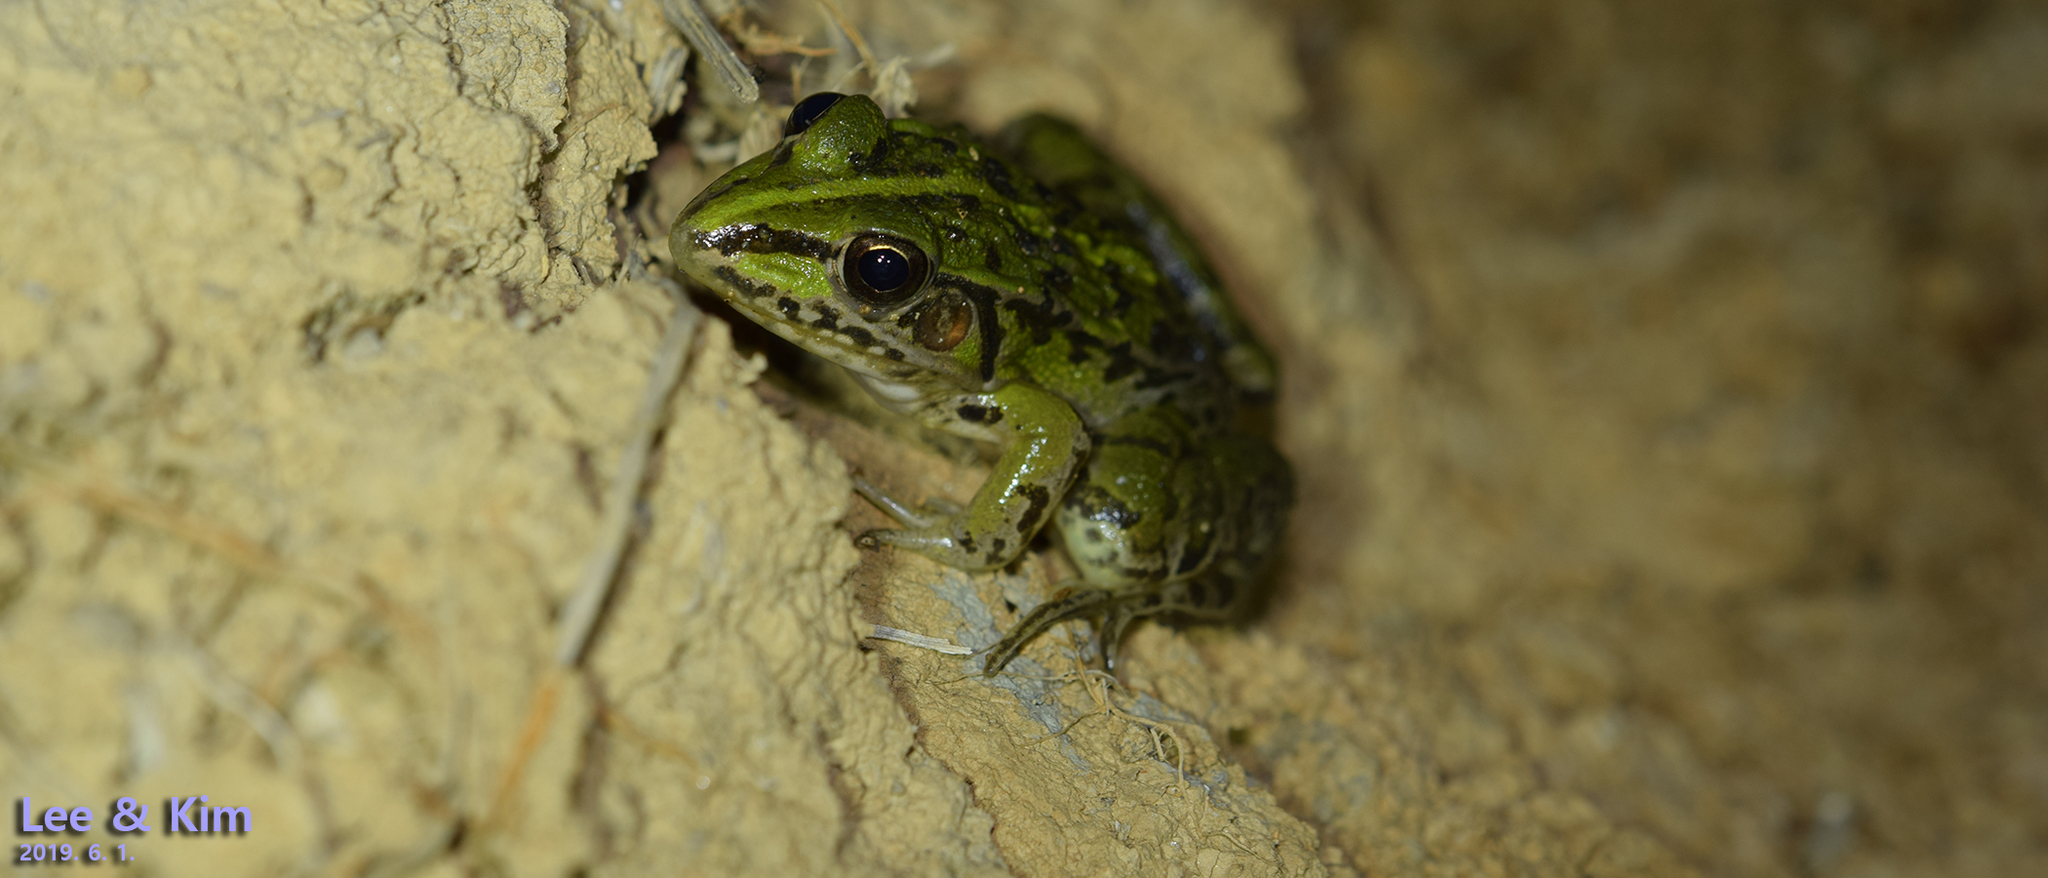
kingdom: Animalia
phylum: Chordata
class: Amphibia
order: Anura
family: Ranidae
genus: Pelophylax
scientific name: Pelophylax nigromaculatus
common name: Black-spotted pond frog
